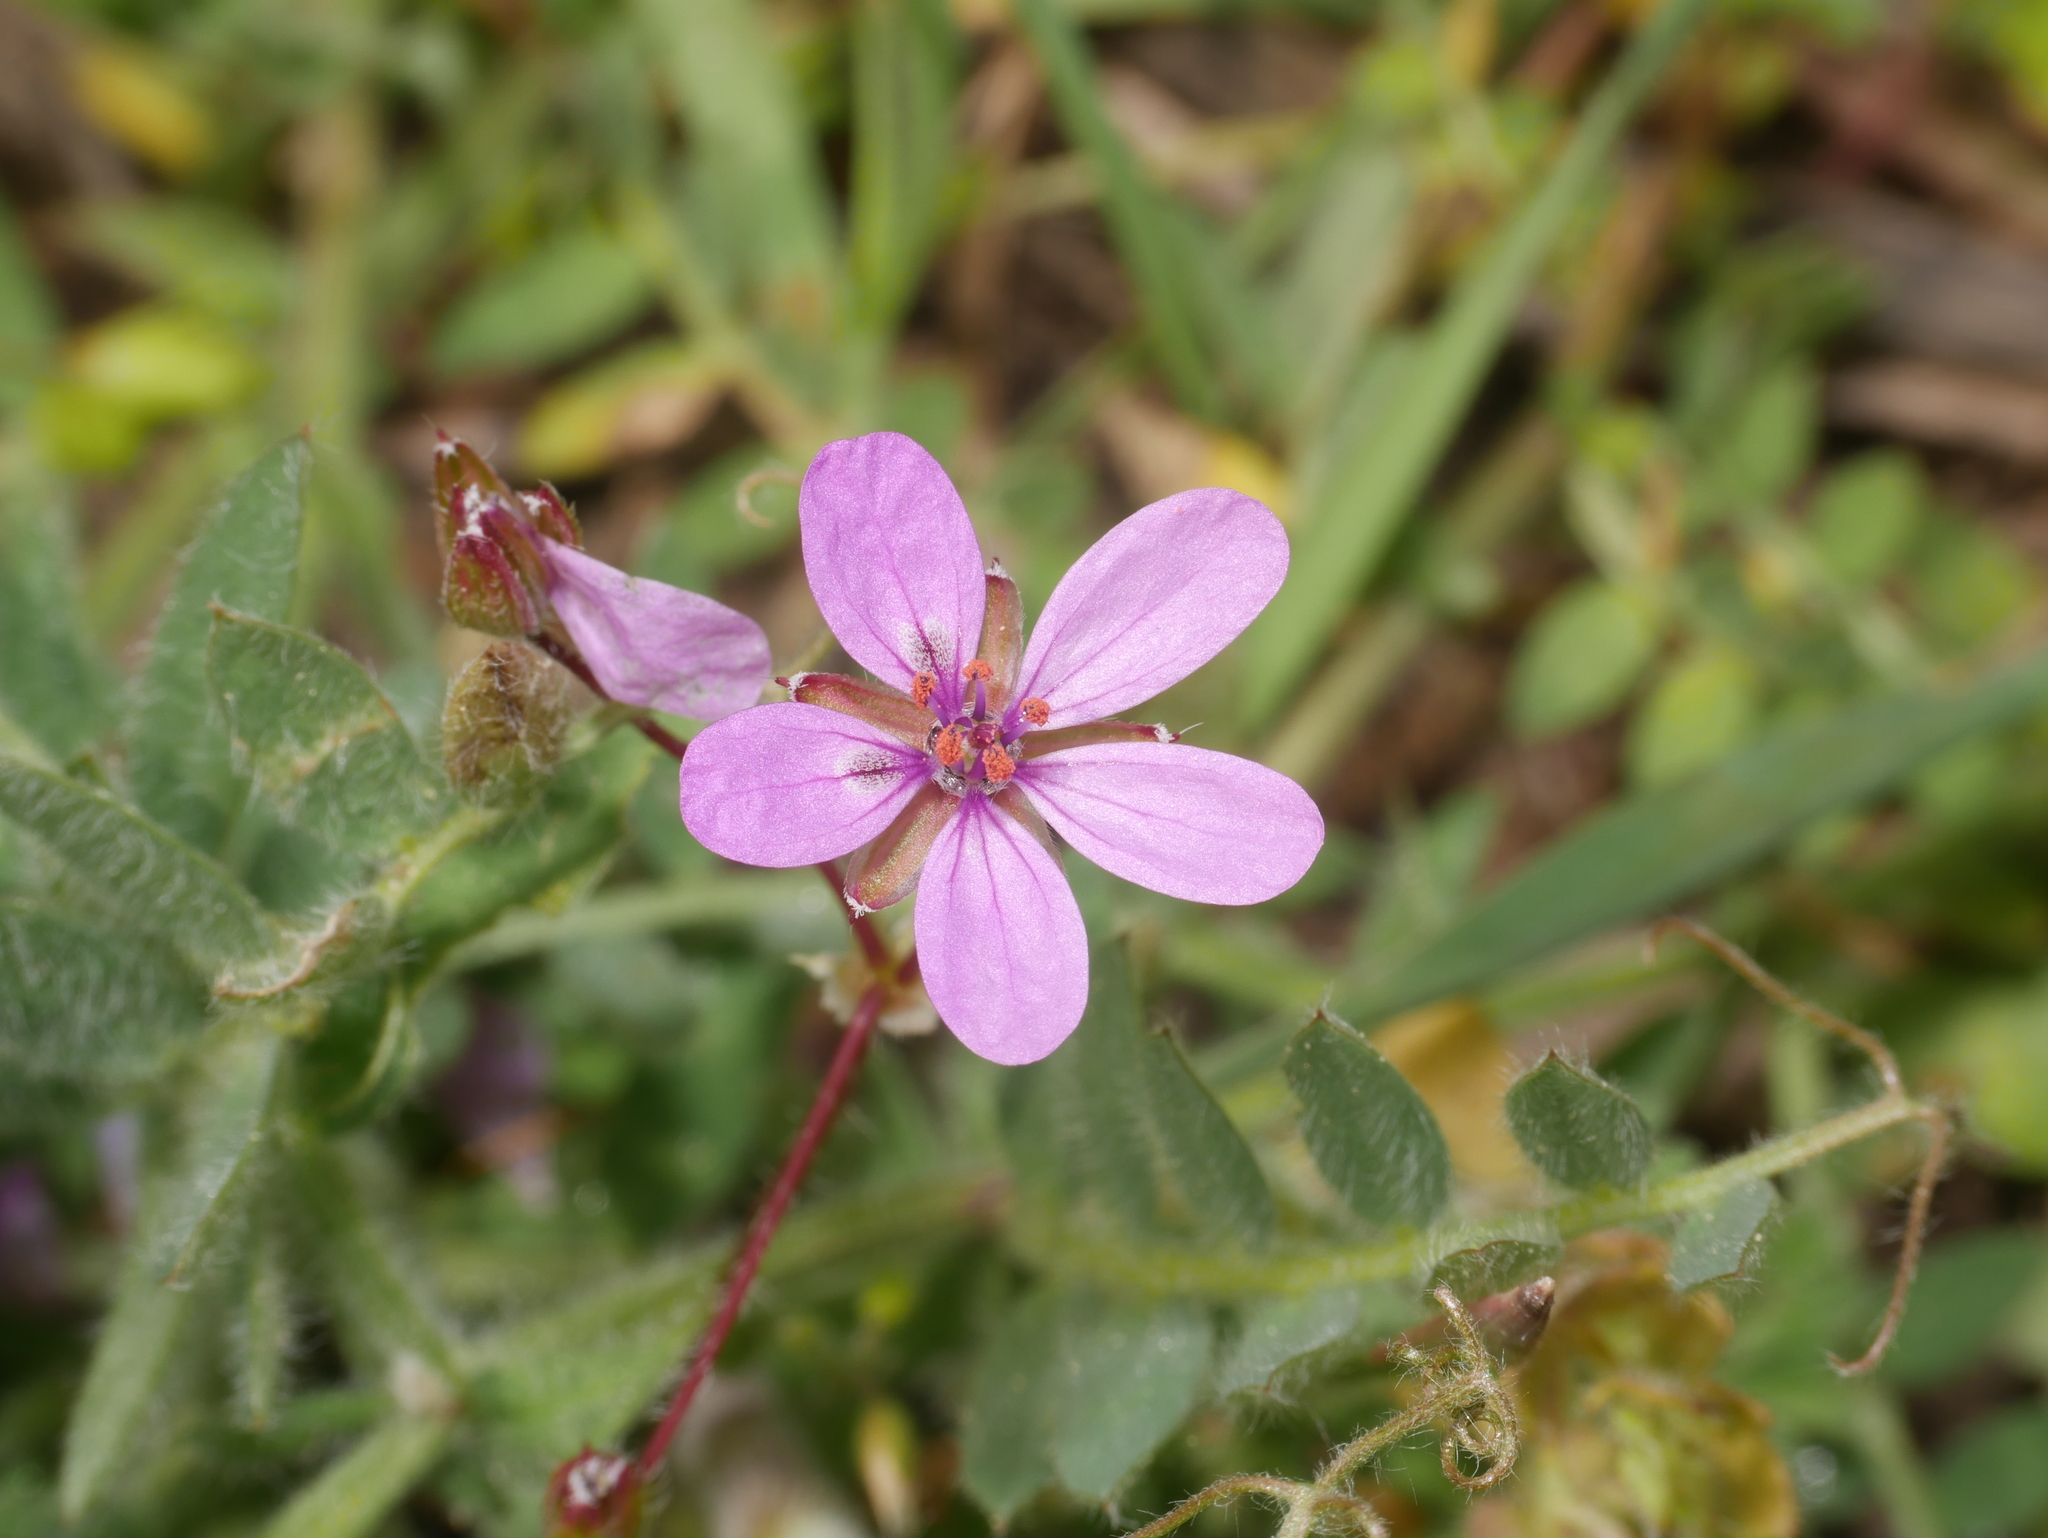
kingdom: Plantae
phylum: Tracheophyta
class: Magnoliopsida
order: Geraniales
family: Geraniaceae
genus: Erodium
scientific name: Erodium cicutarium
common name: Common stork's-bill
